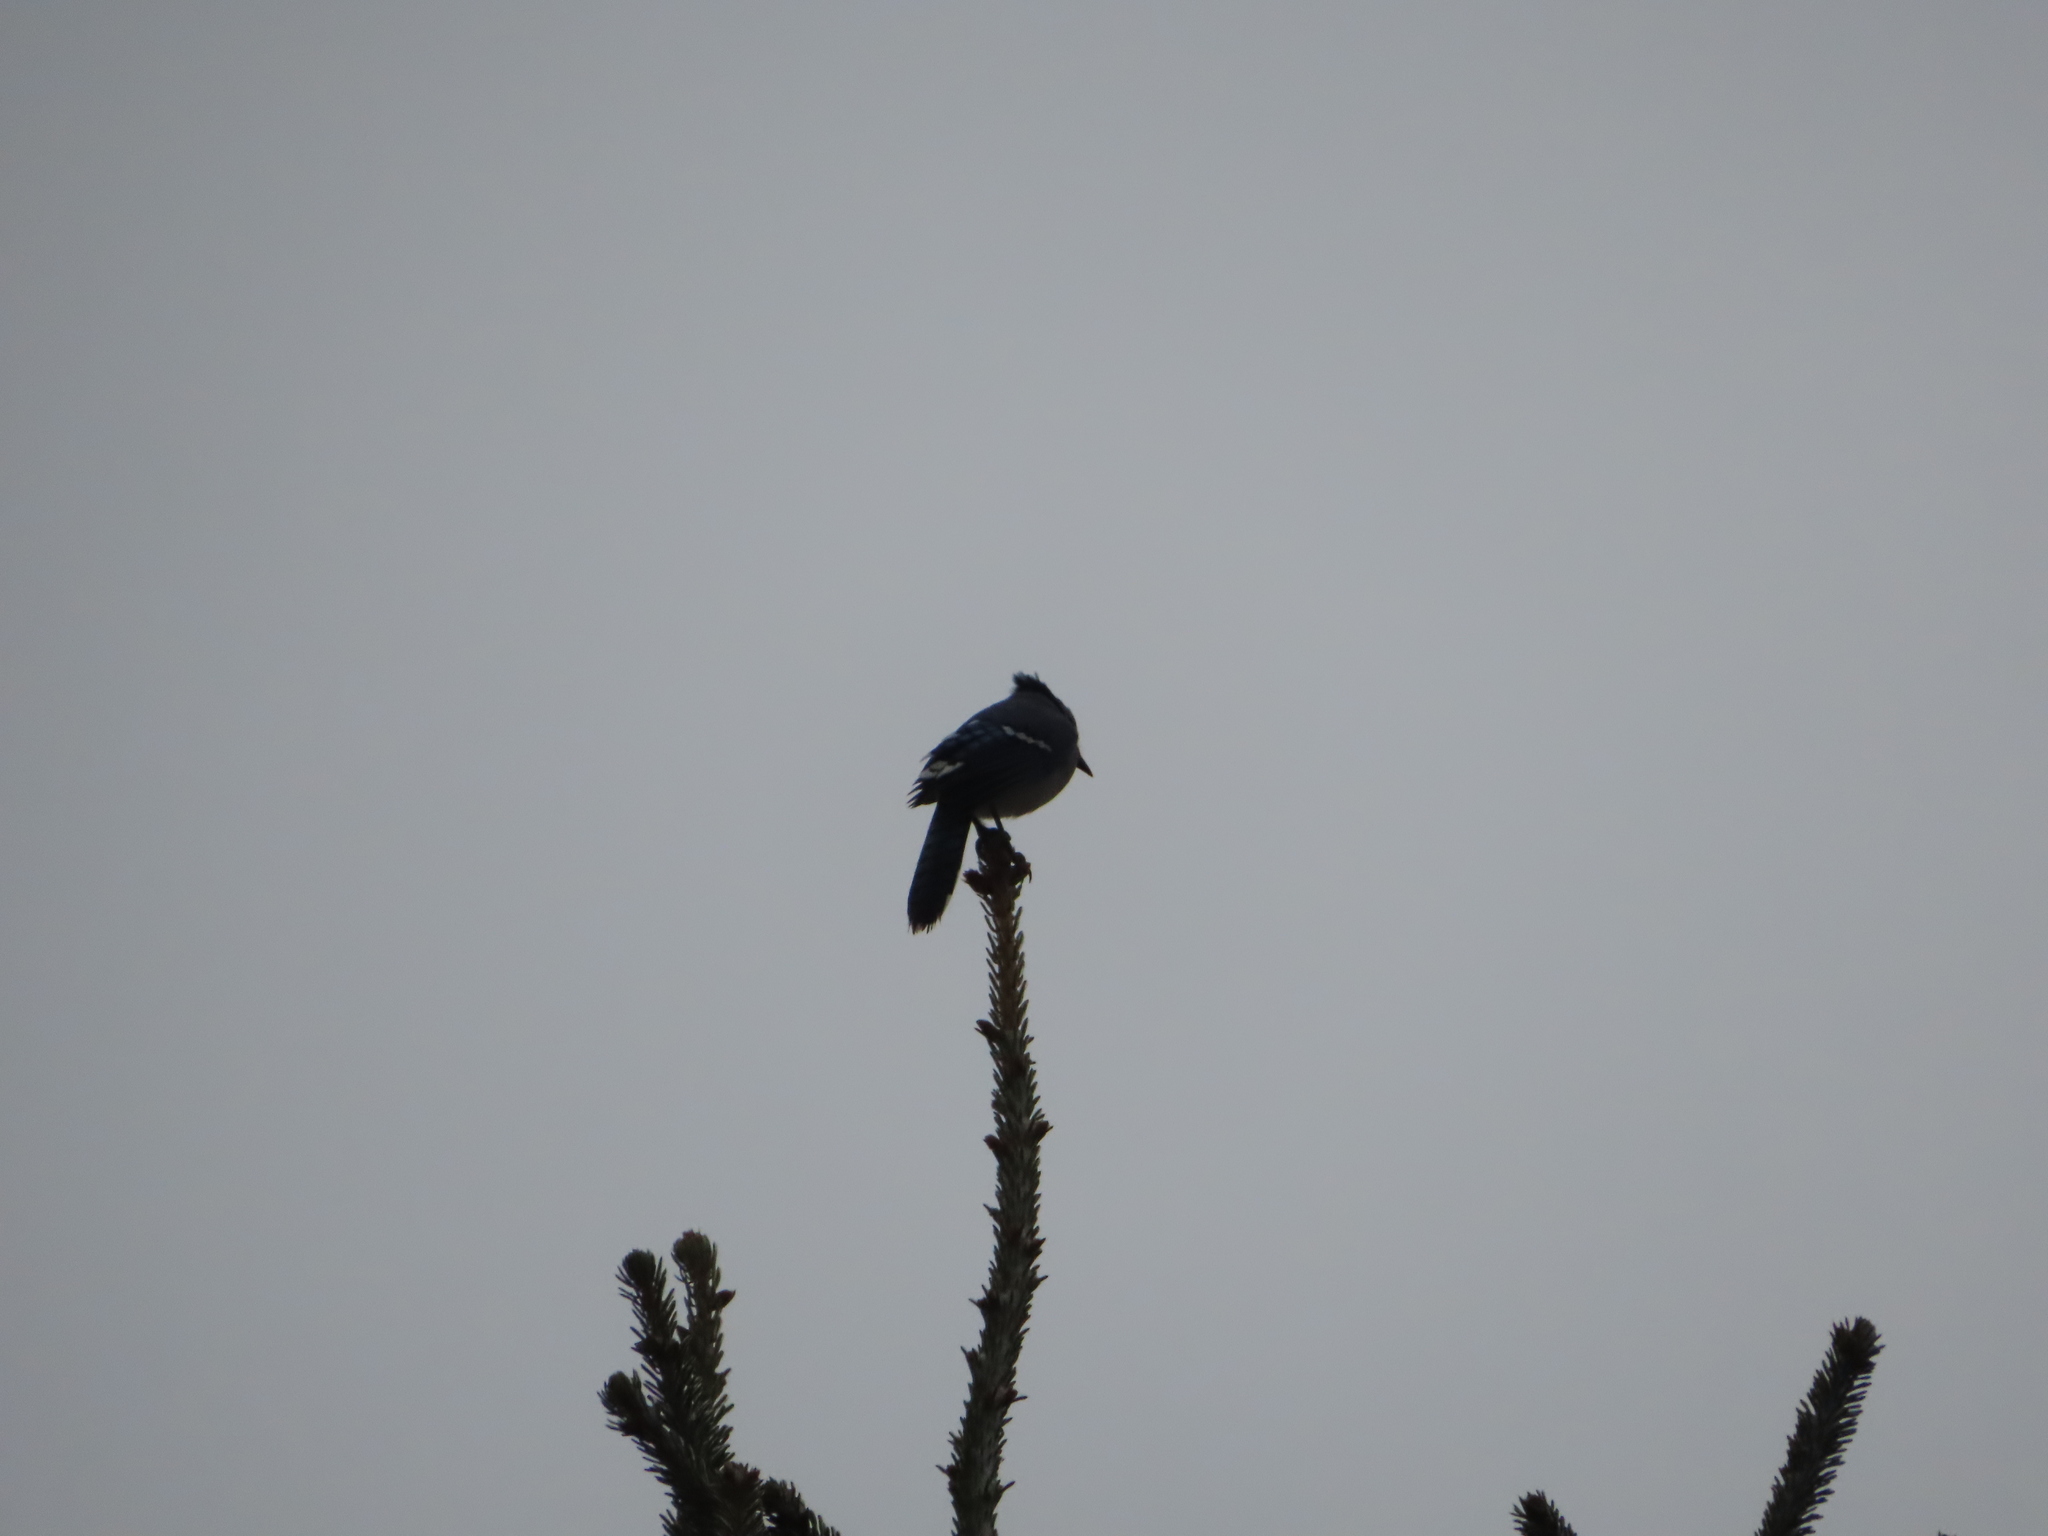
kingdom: Animalia
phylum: Chordata
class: Aves
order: Passeriformes
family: Corvidae
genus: Cyanocitta
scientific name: Cyanocitta cristata
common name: Blue jay
